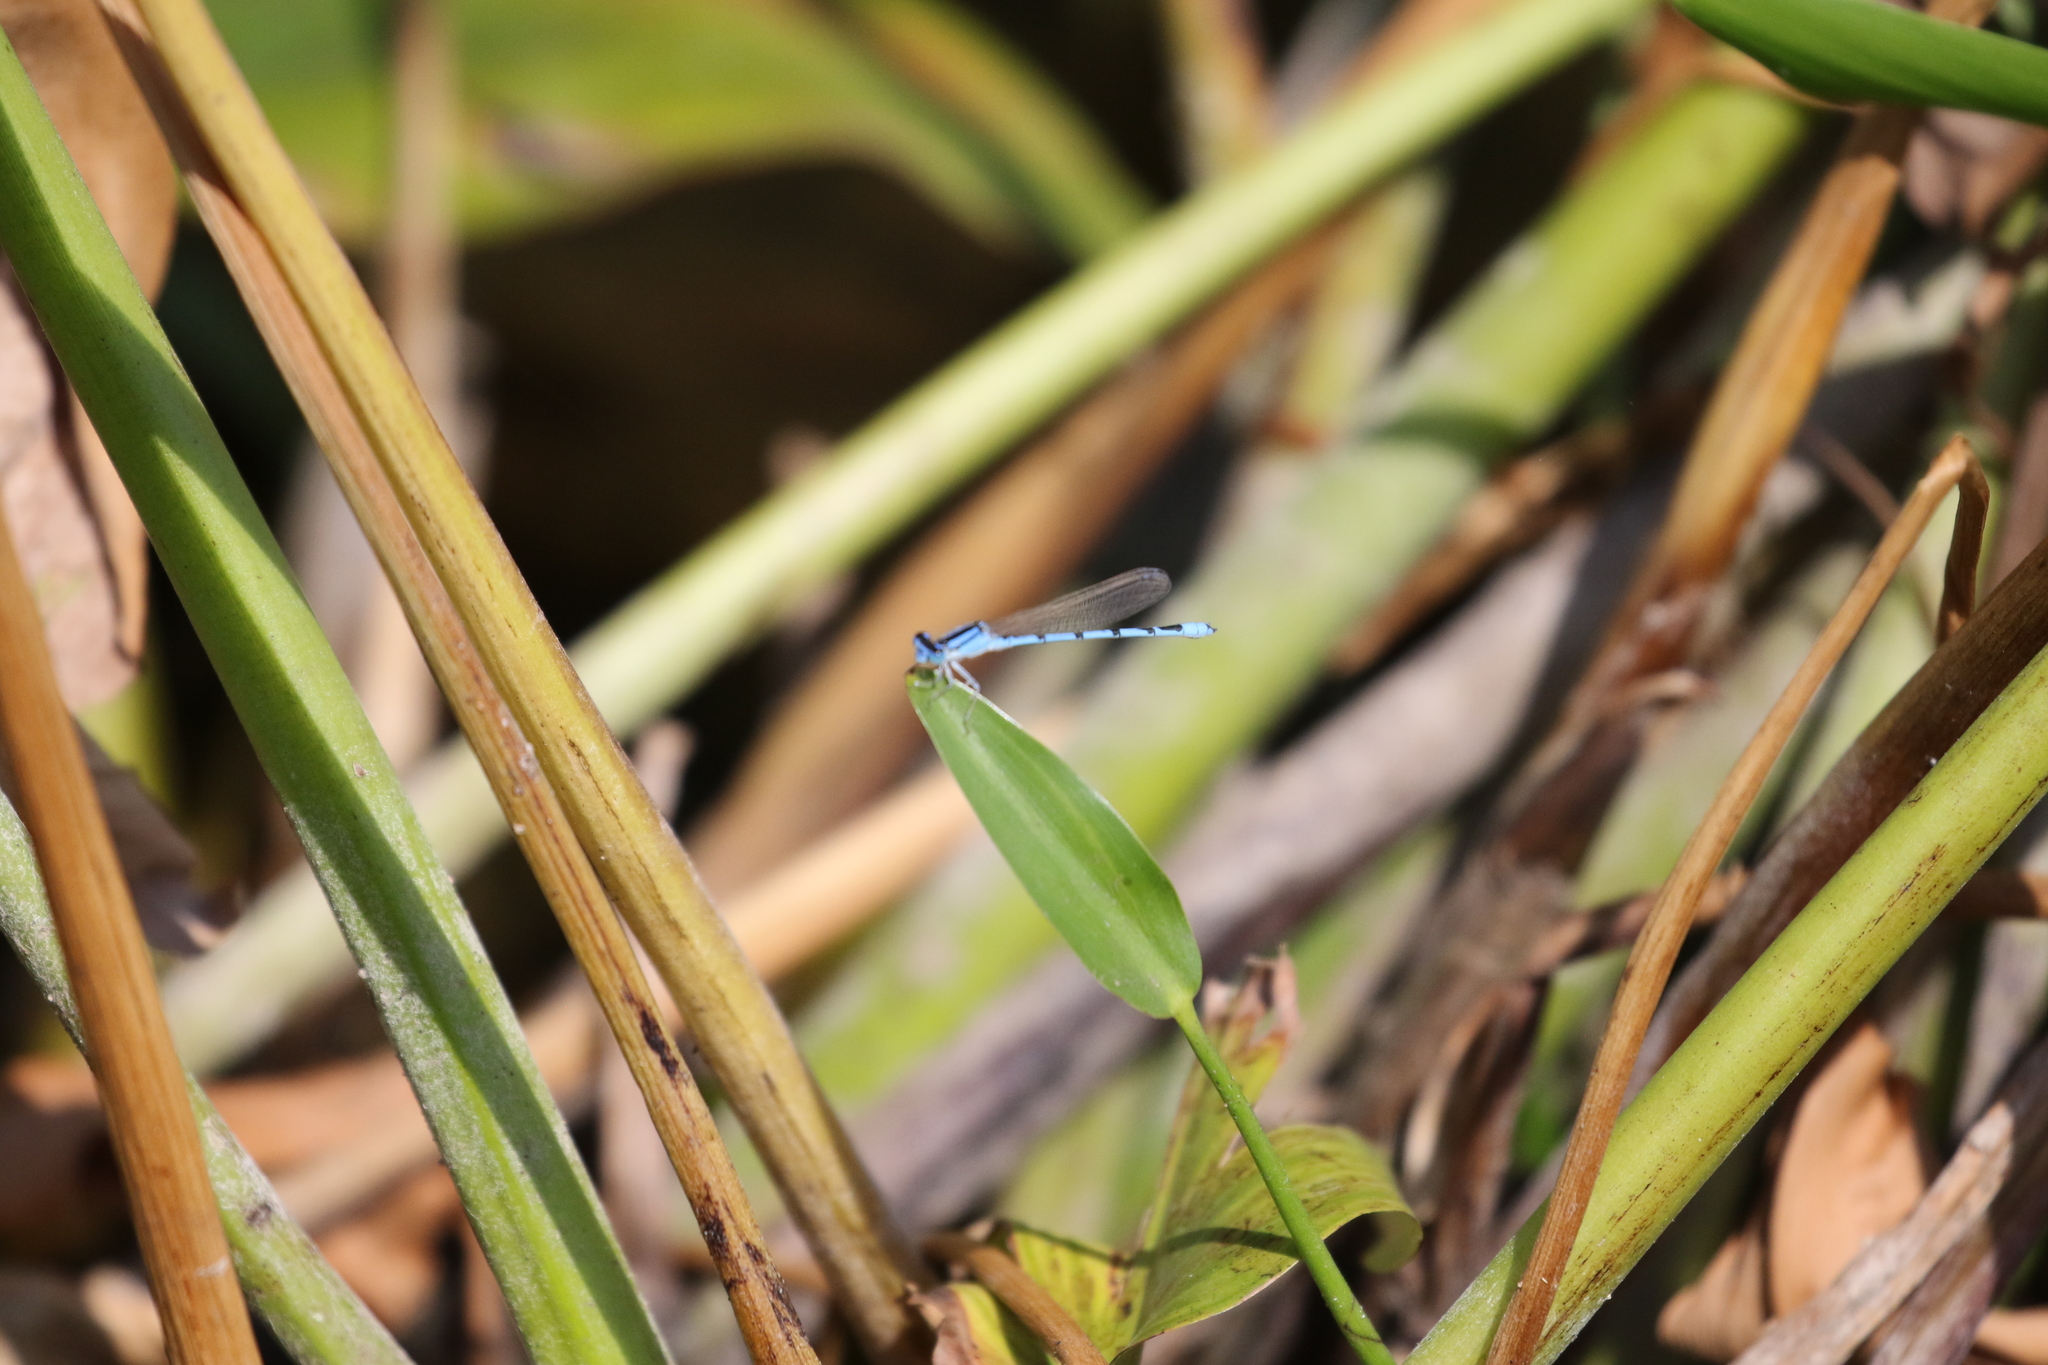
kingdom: Animalia
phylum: Arthropoda
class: Insecta
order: Odonata
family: Coenagrionidae
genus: Enallagma
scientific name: Enallagma civile
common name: Damselfly
